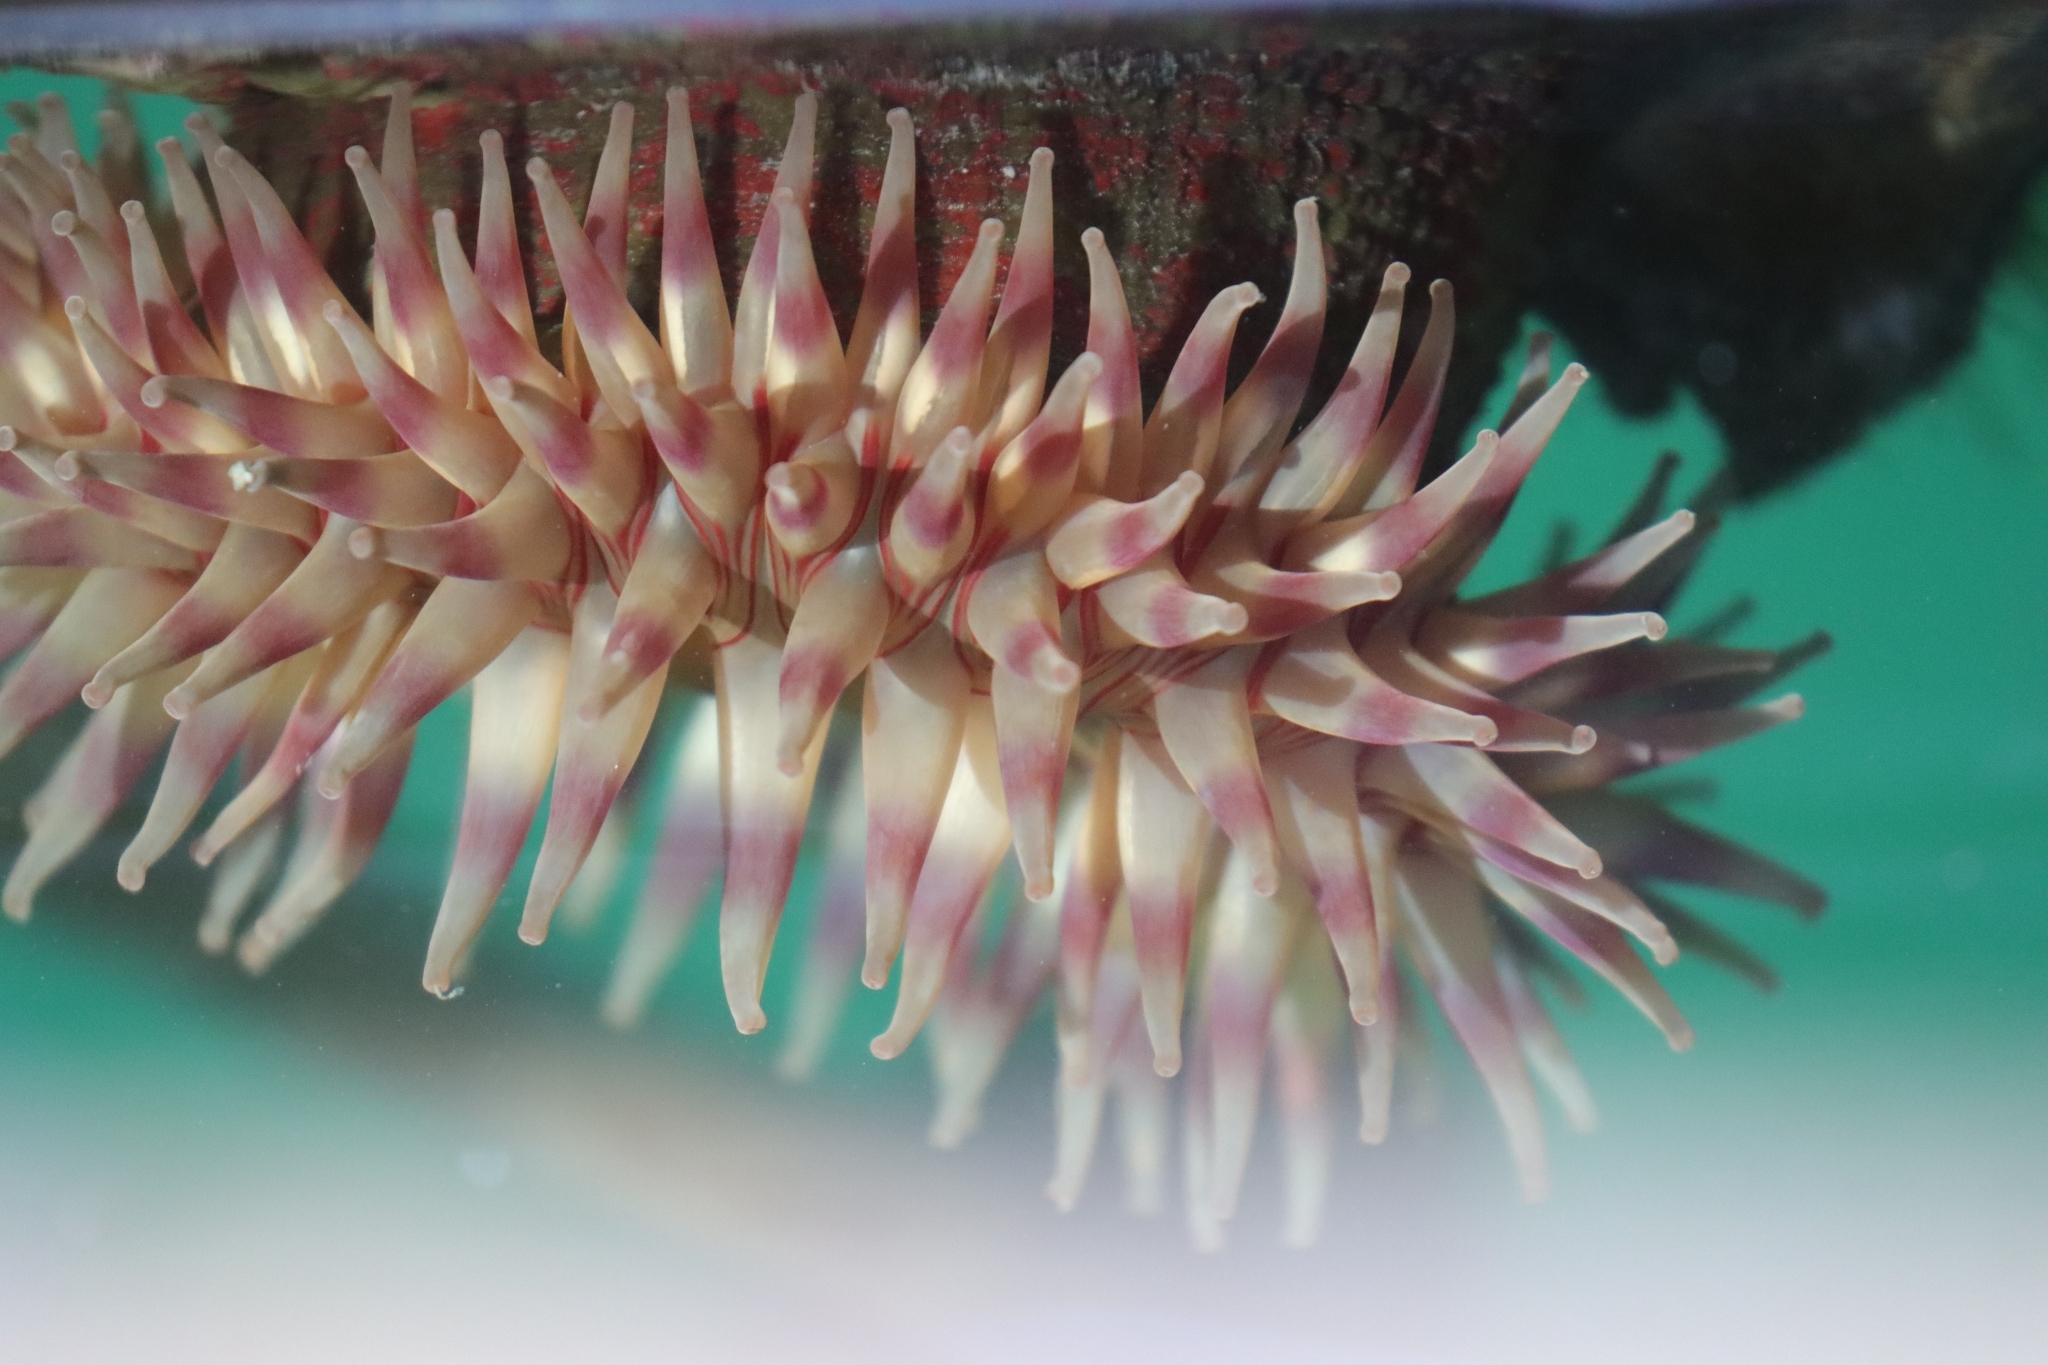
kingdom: Animalia
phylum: Cnidaria
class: Anthozoa
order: Actiniaria
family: Actiniidae
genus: Urticina
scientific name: Urticina grebelnyi
